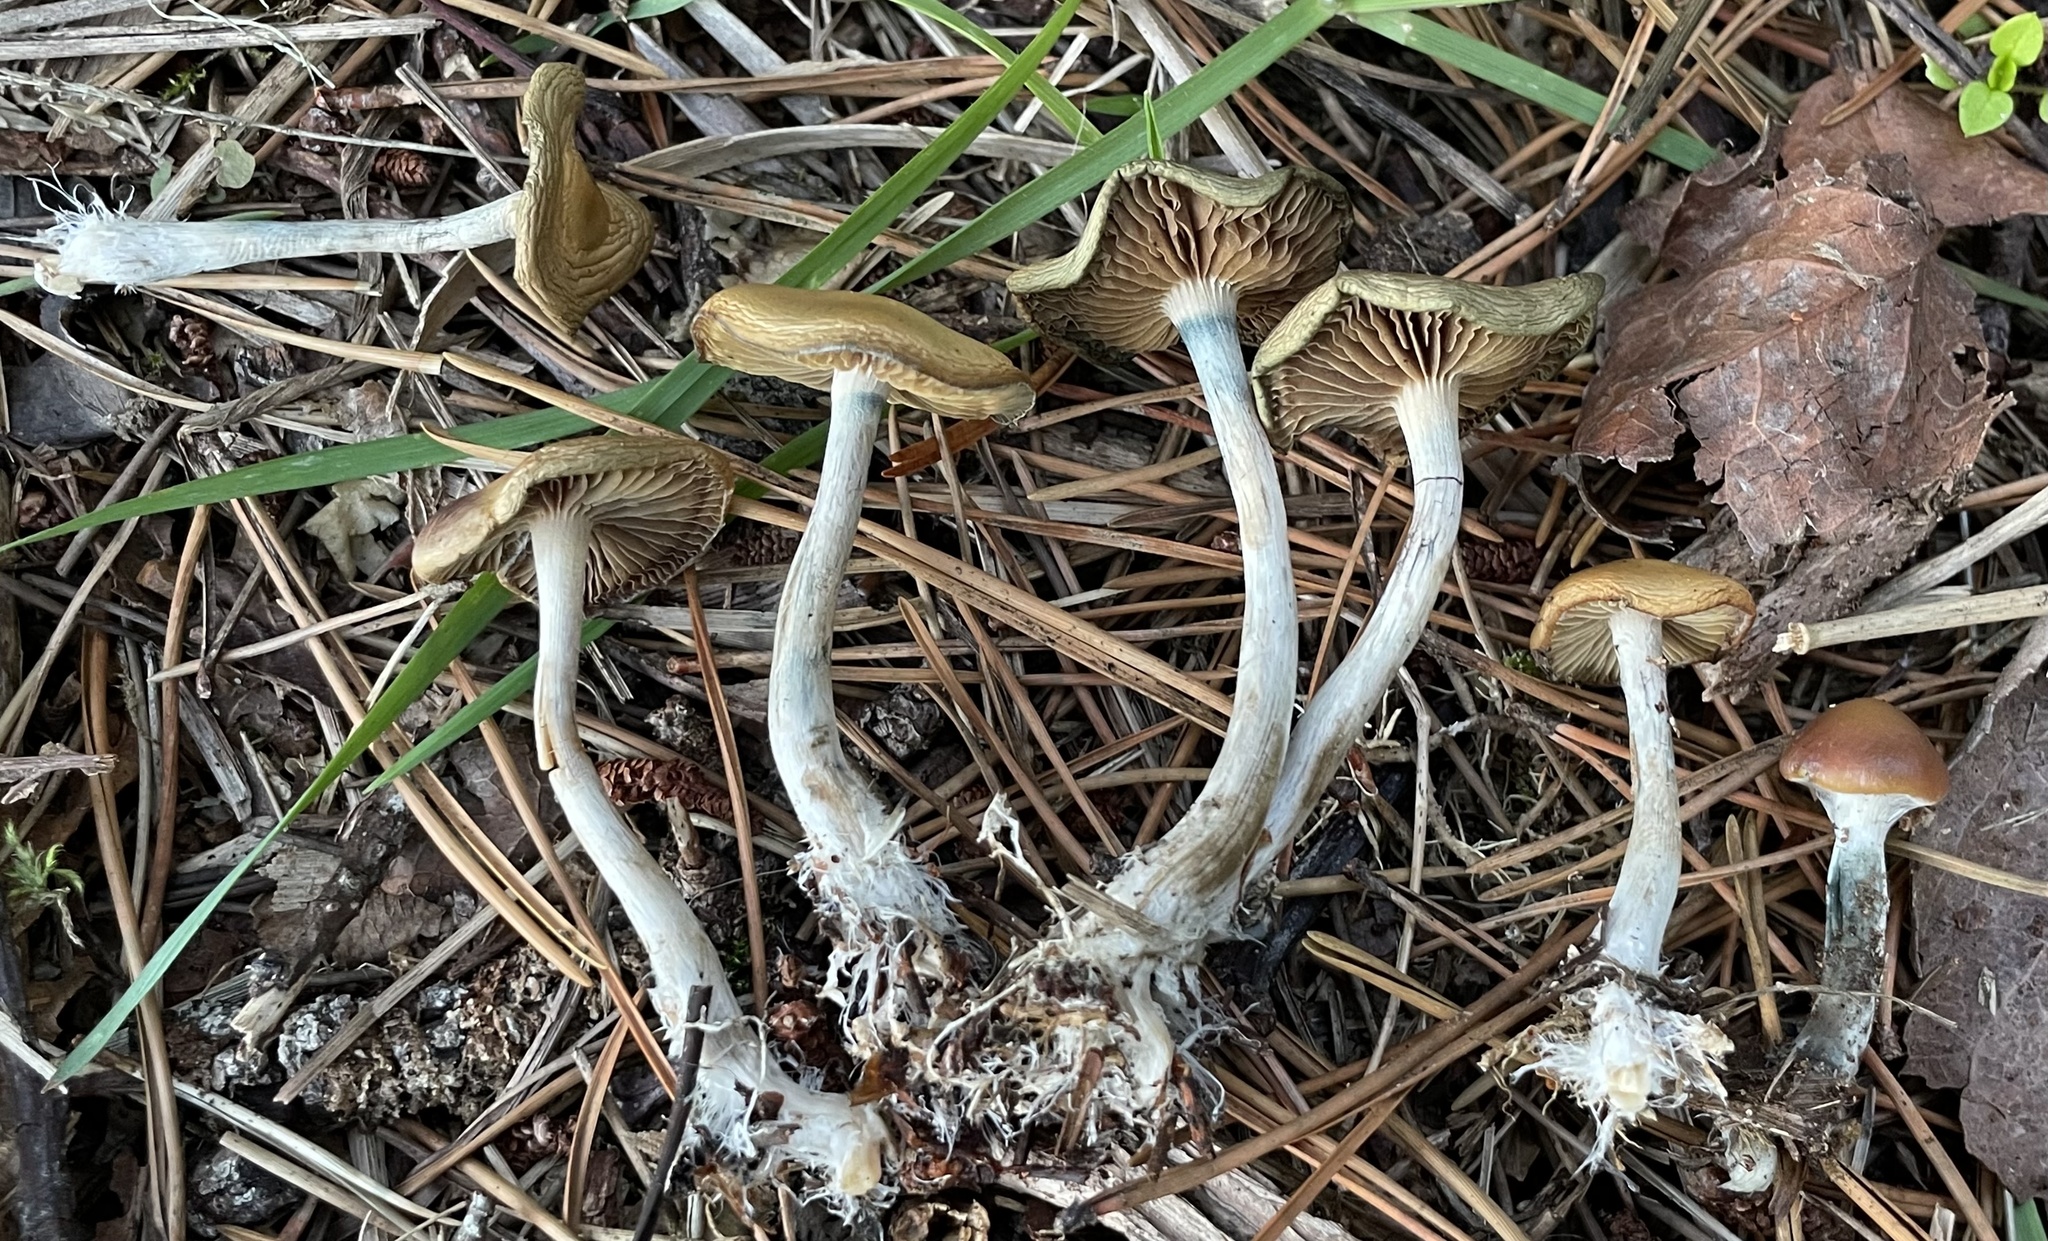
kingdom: Fungi
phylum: Basidiomycota
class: Agaricomycetes
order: Agaricales
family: Hymenogastraceae
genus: Psilocybe
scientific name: Psilocybe cyanescens
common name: Blueleg brownie
